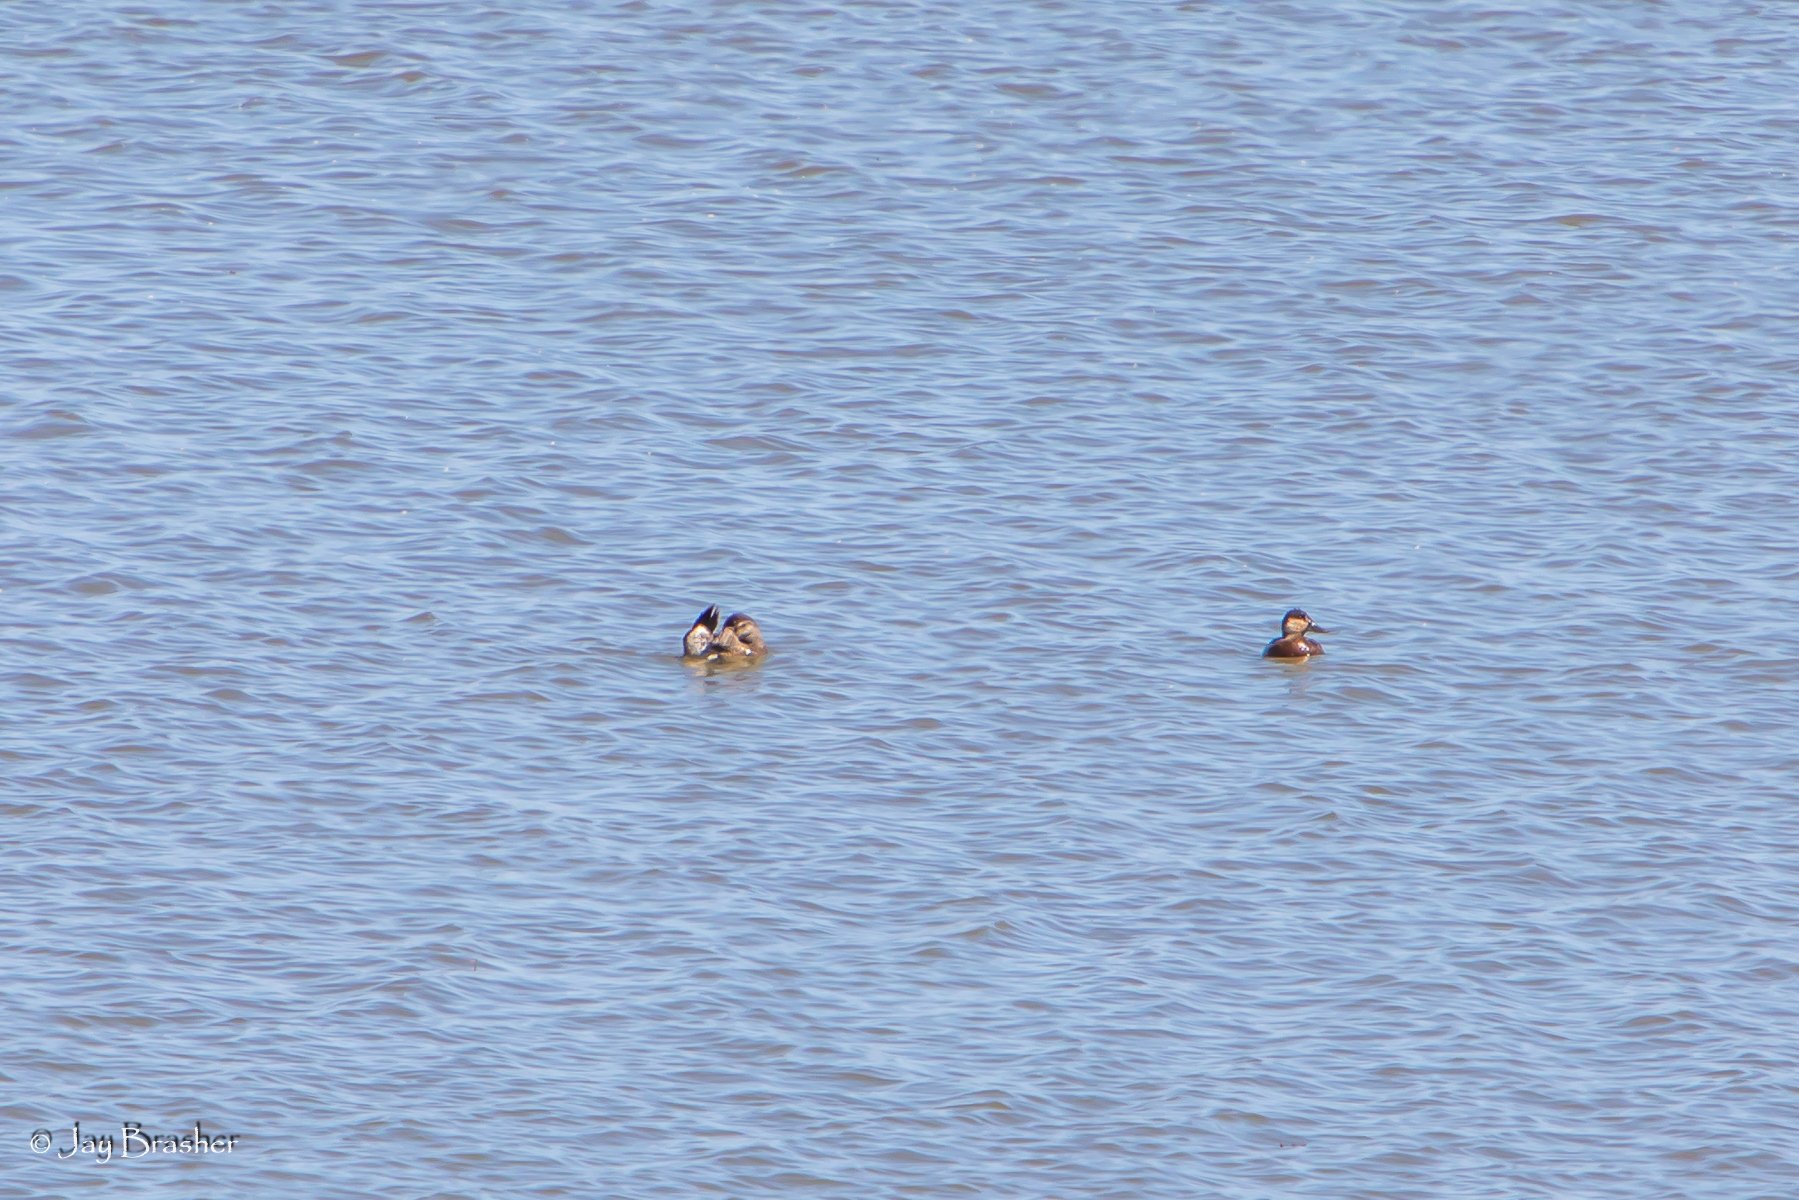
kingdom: Animalia
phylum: Chordata
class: Aves
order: Anseriformes
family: Anatidae
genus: Oxyura
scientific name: Oxyura jamaicensis
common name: Ruddy duck
